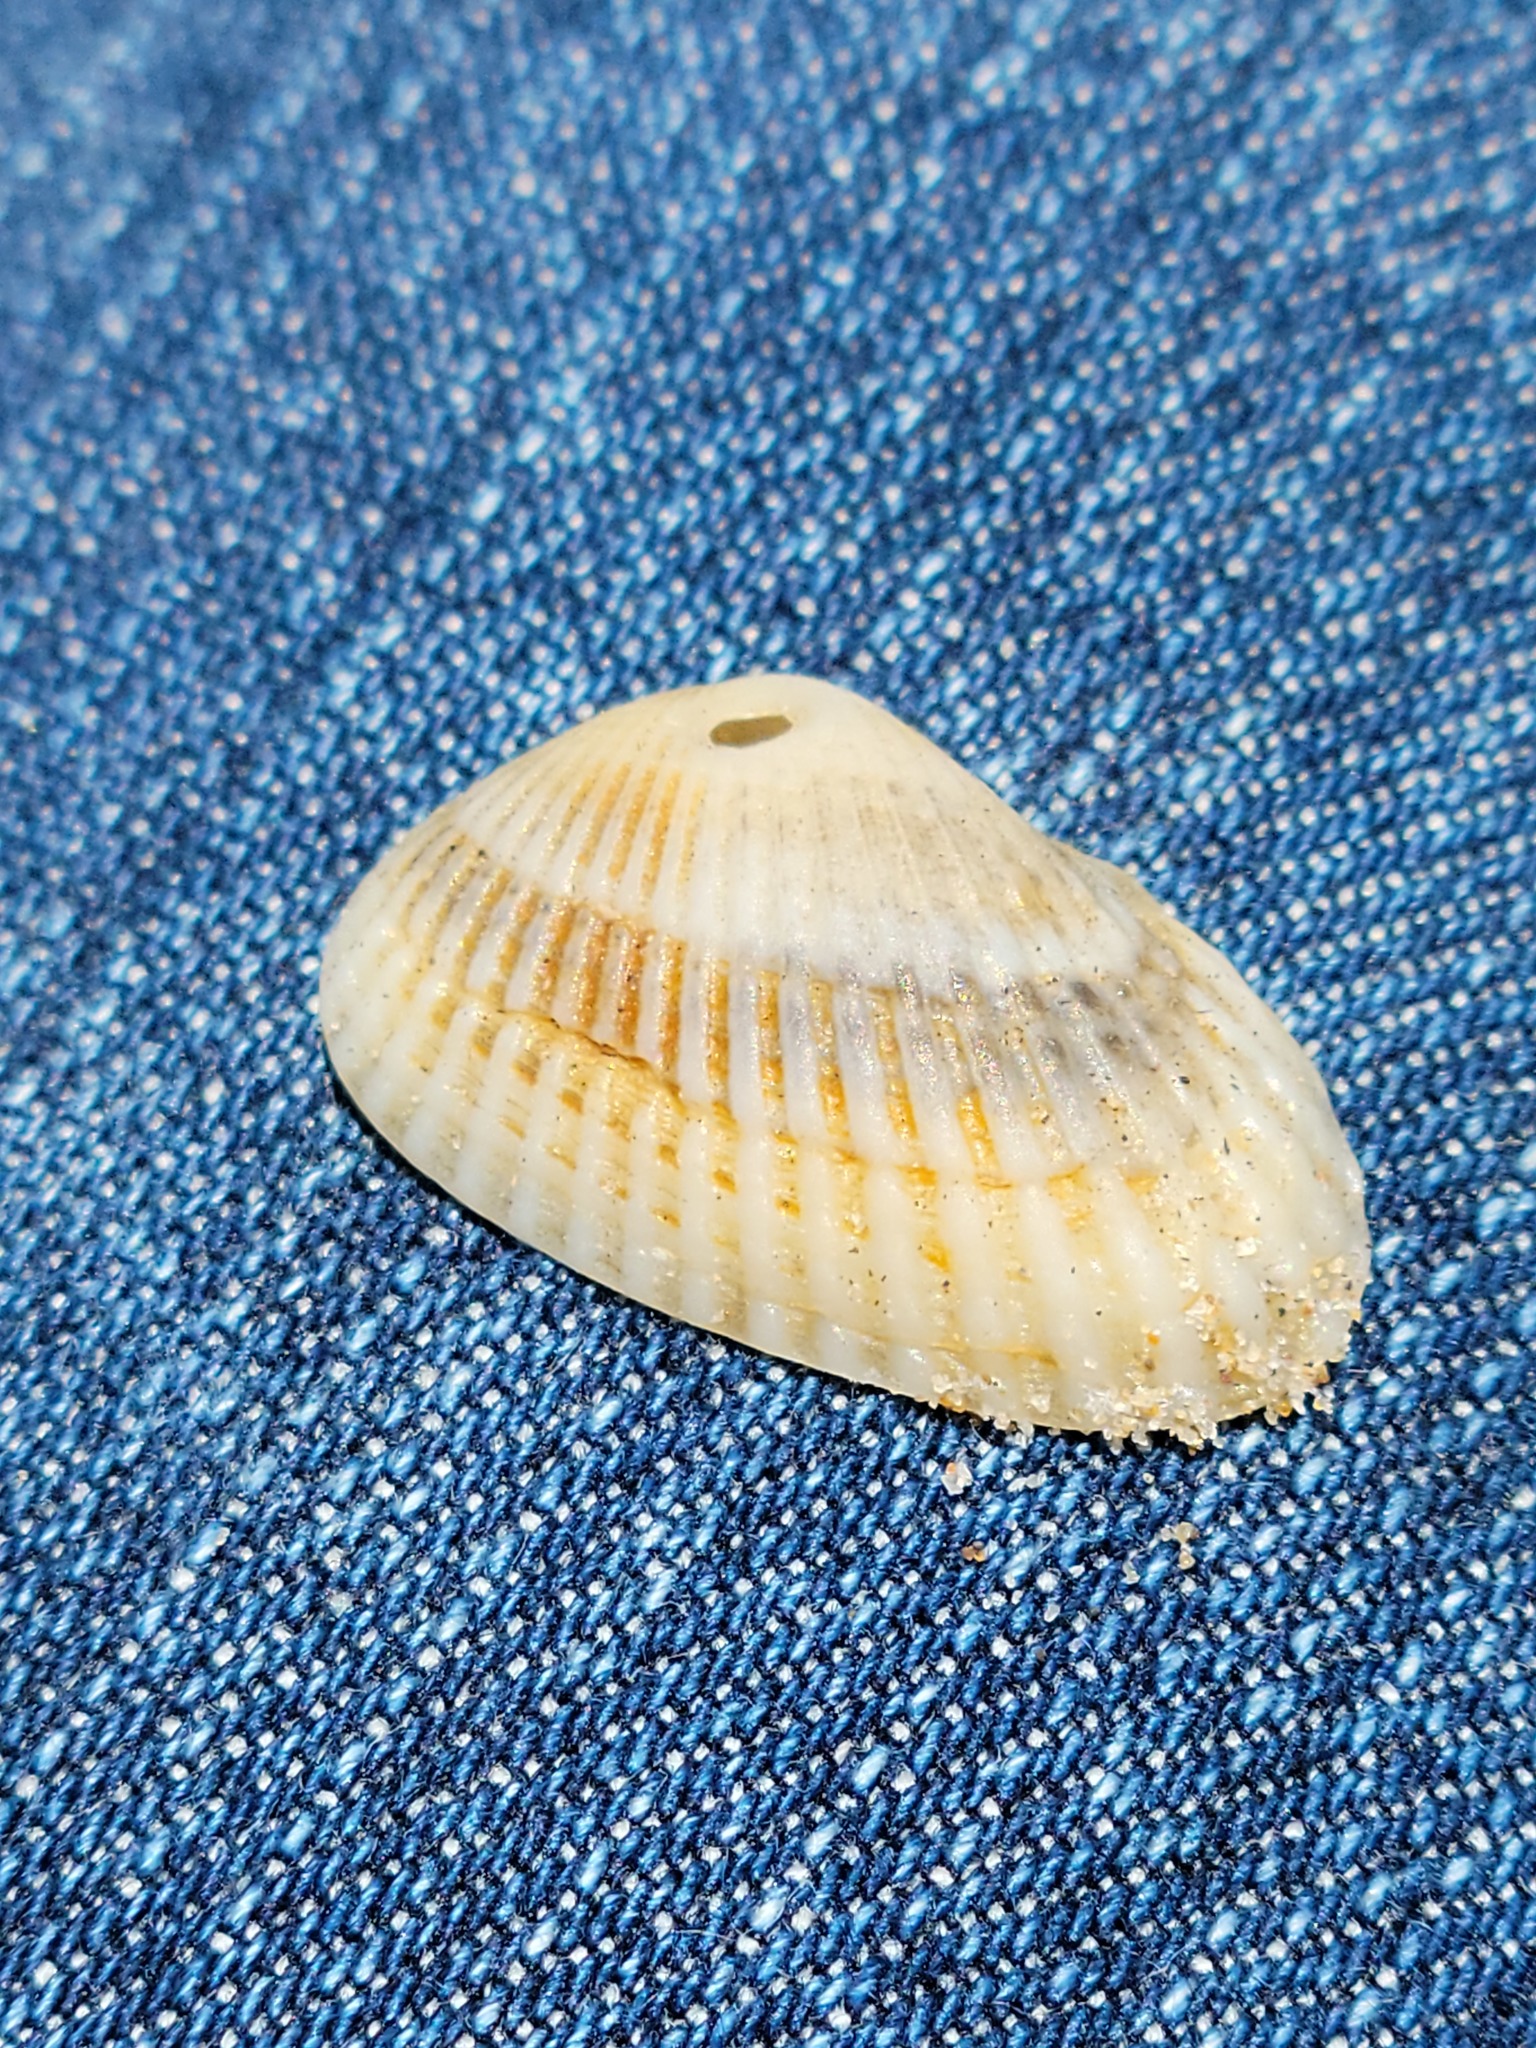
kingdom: Animalia
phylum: Mollusca
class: Bivalvia
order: Arcida
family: Arcidae
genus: Anadara
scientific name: Anadara transversa
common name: Transverse ark
